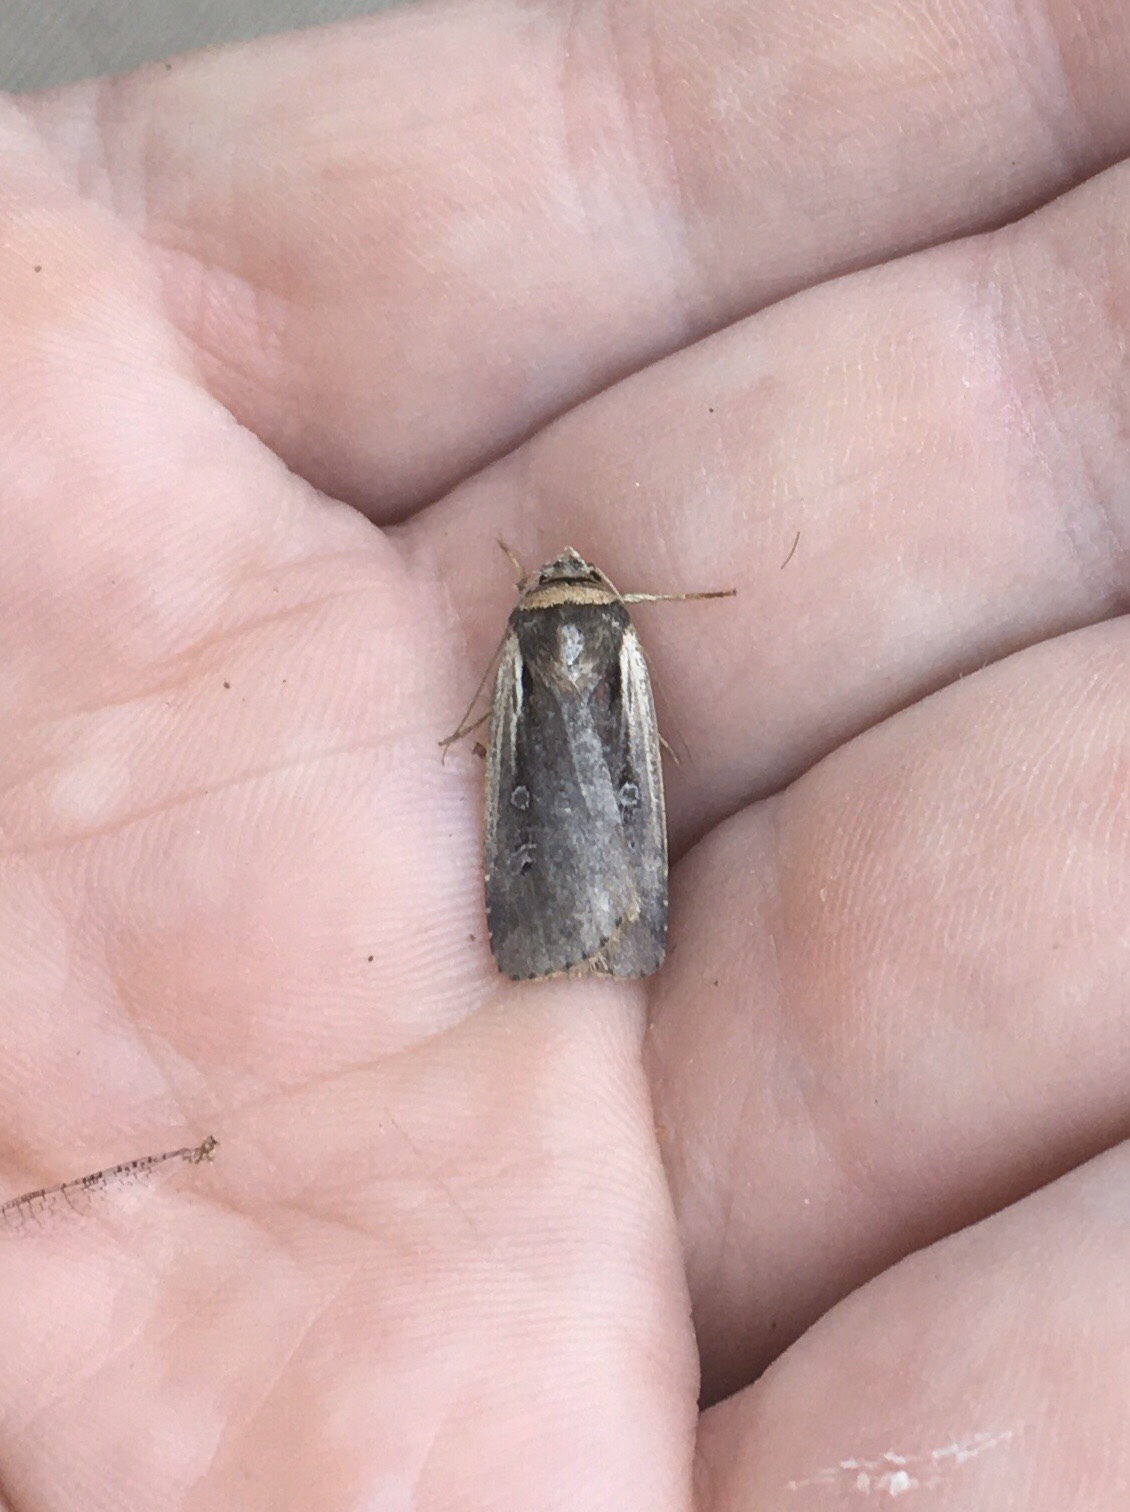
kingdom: Animalia
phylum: Arthropoda
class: Insecta
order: Lepidoptera
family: Noctuidae
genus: Ochropleura
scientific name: Ochropleura implecta
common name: Flame-shouldered dart
